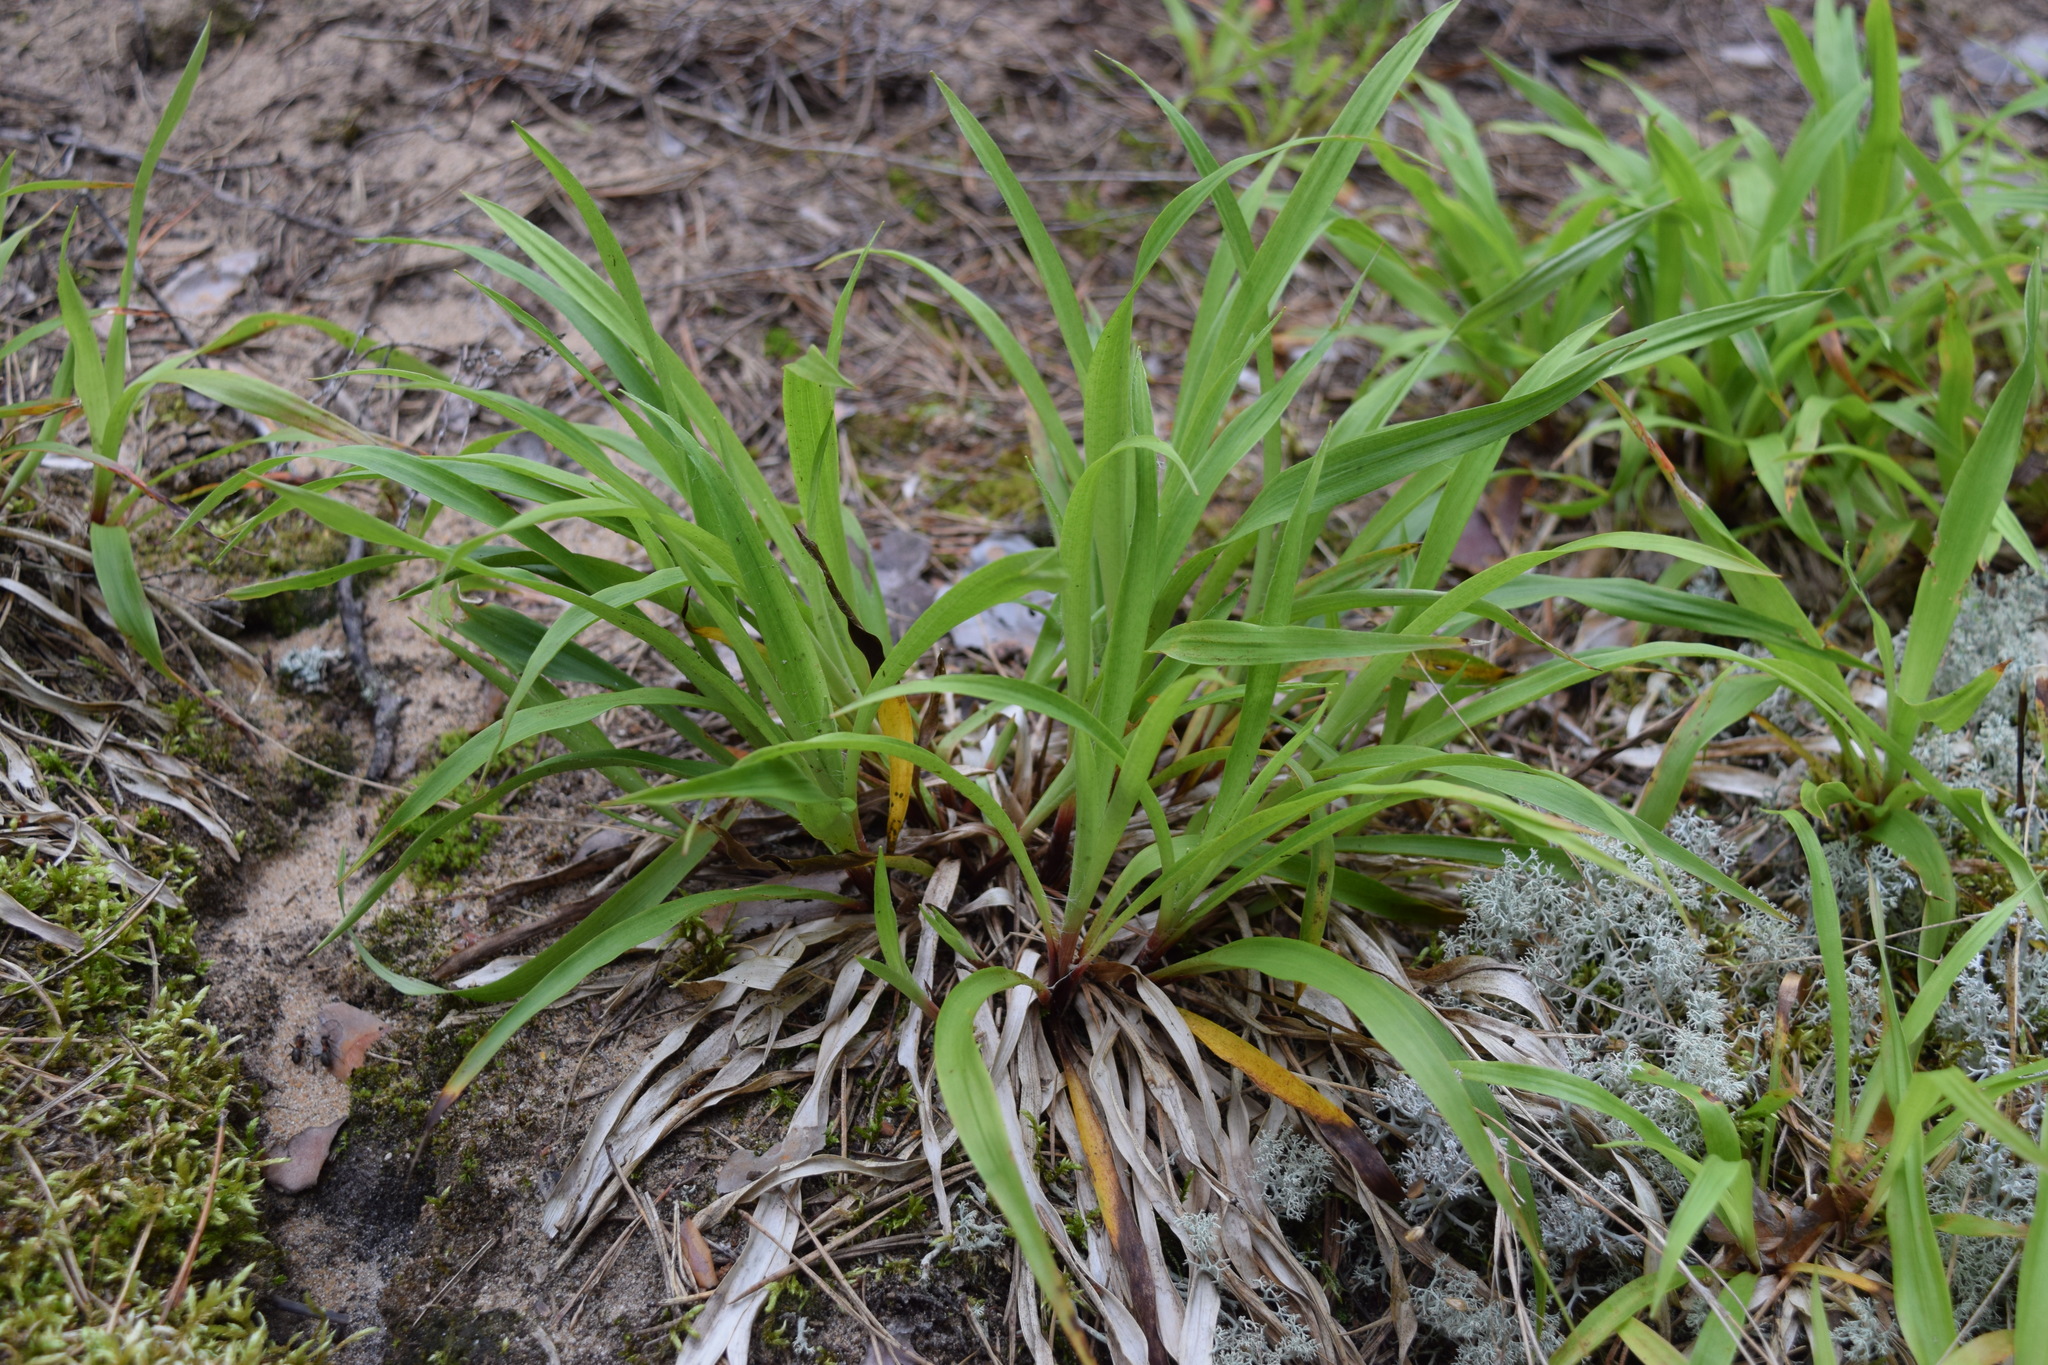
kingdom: Plantae
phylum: Tracheophyta
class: Liliopsida
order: Poales
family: Juncaceae
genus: Luzula
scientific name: Luzula pilosa
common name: Hairy wood-rush
